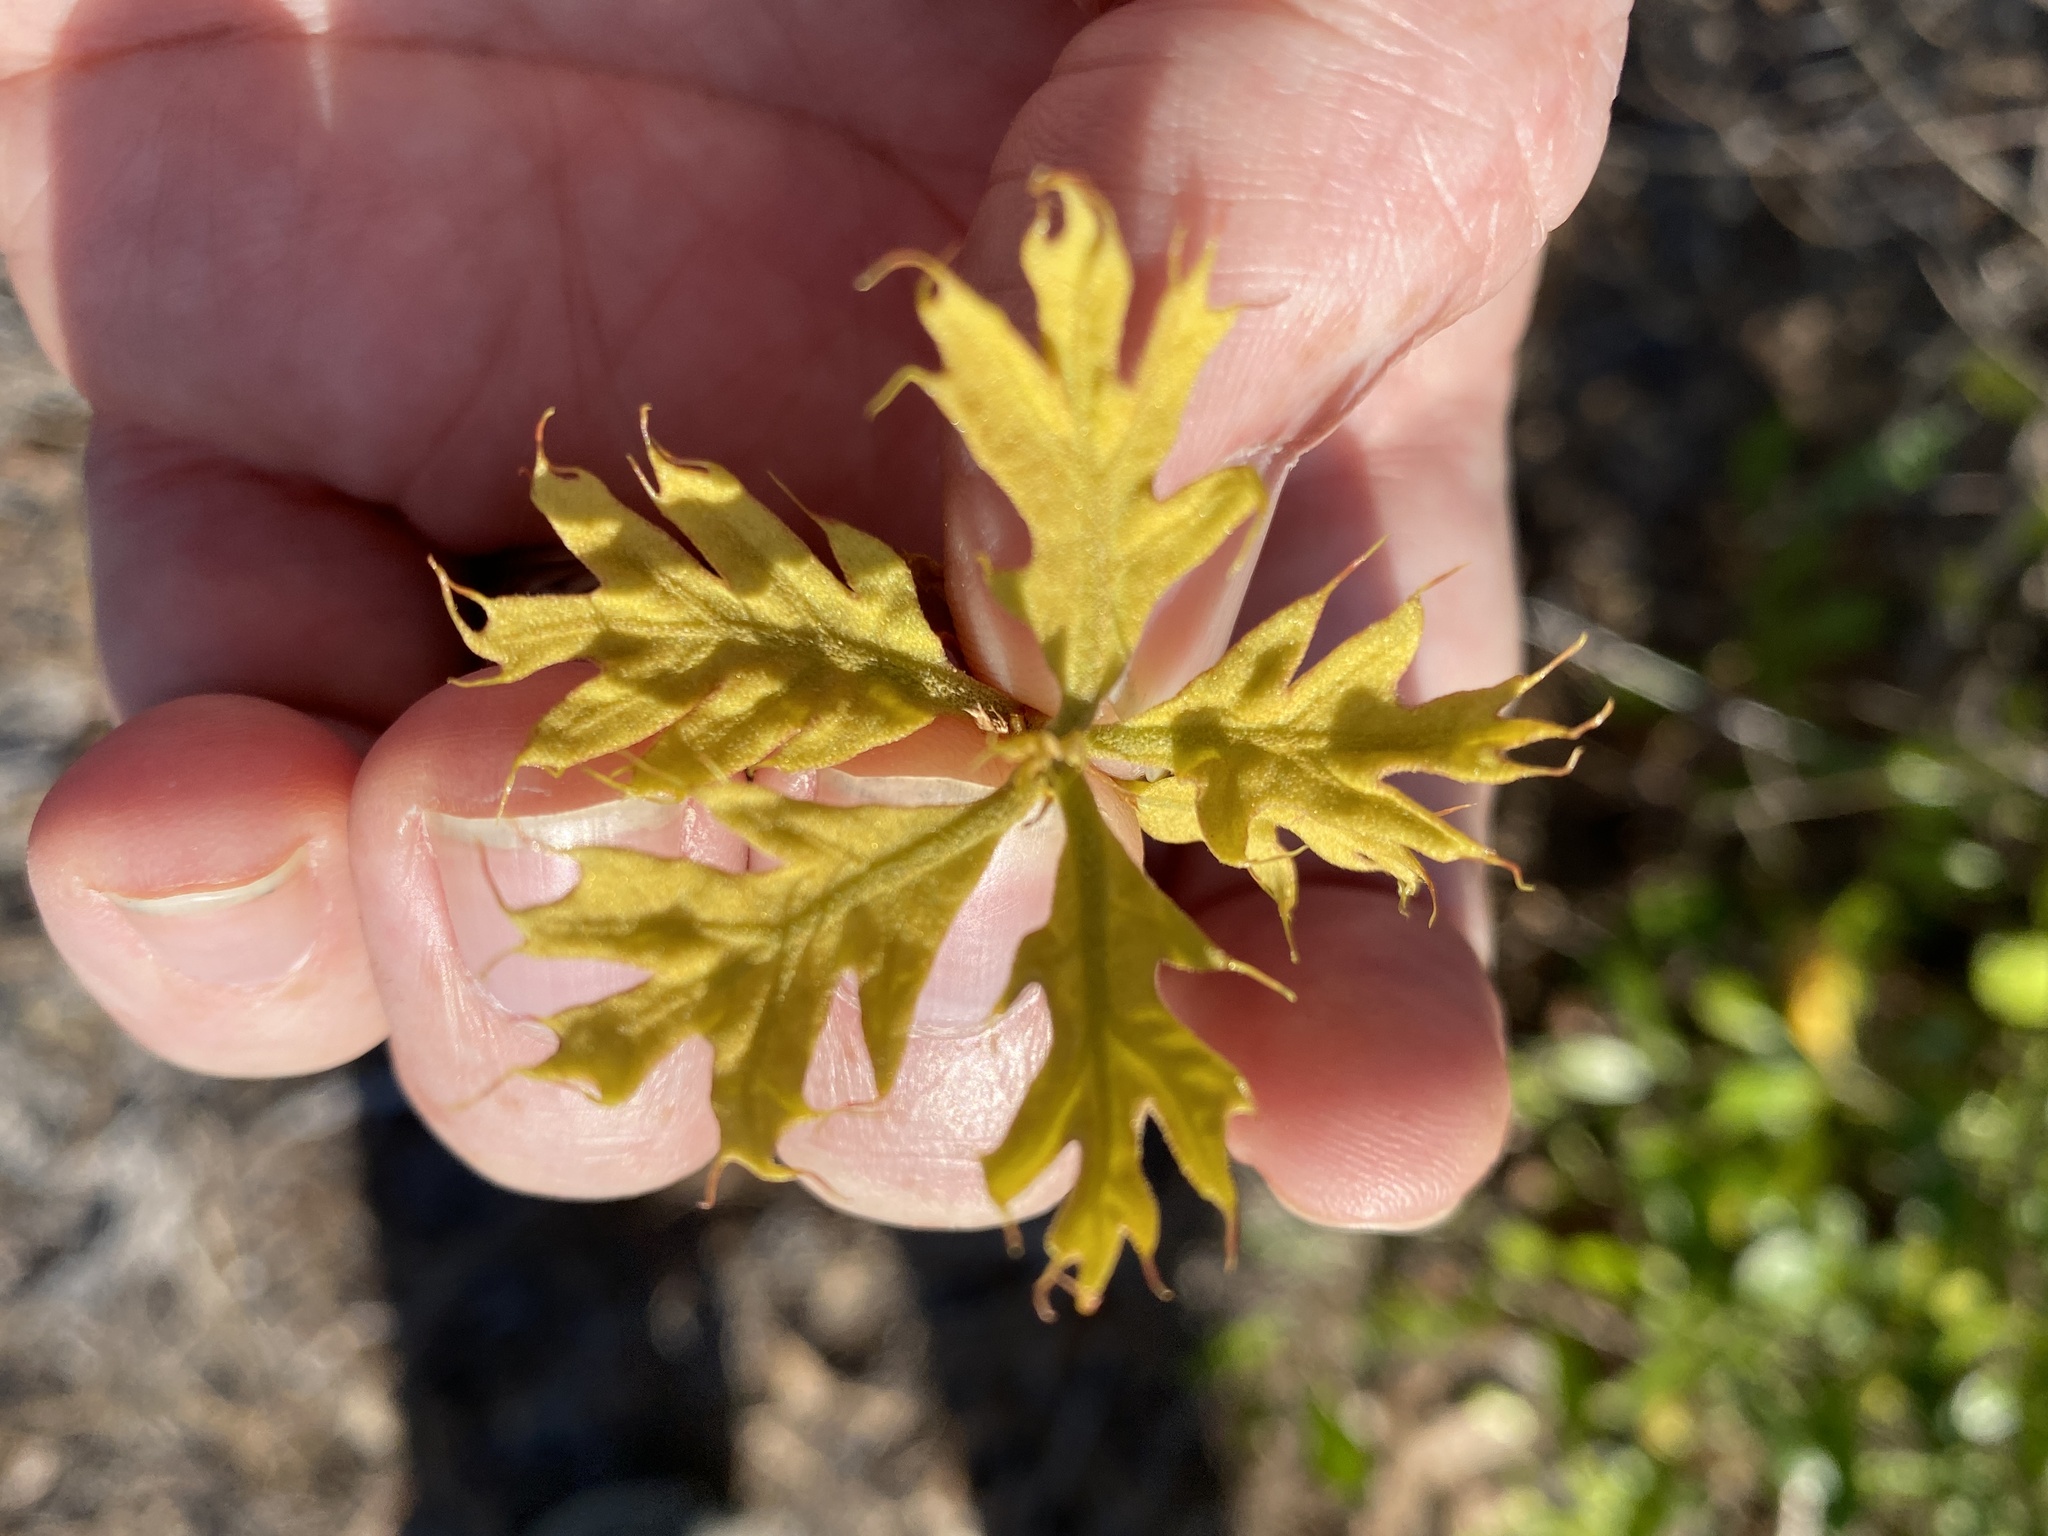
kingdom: Plantae
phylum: Tracheophyta
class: Magnoliopsida
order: Fagales
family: Fagaceae
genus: Quercus
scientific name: Quercus laevis
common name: Turkey oak
